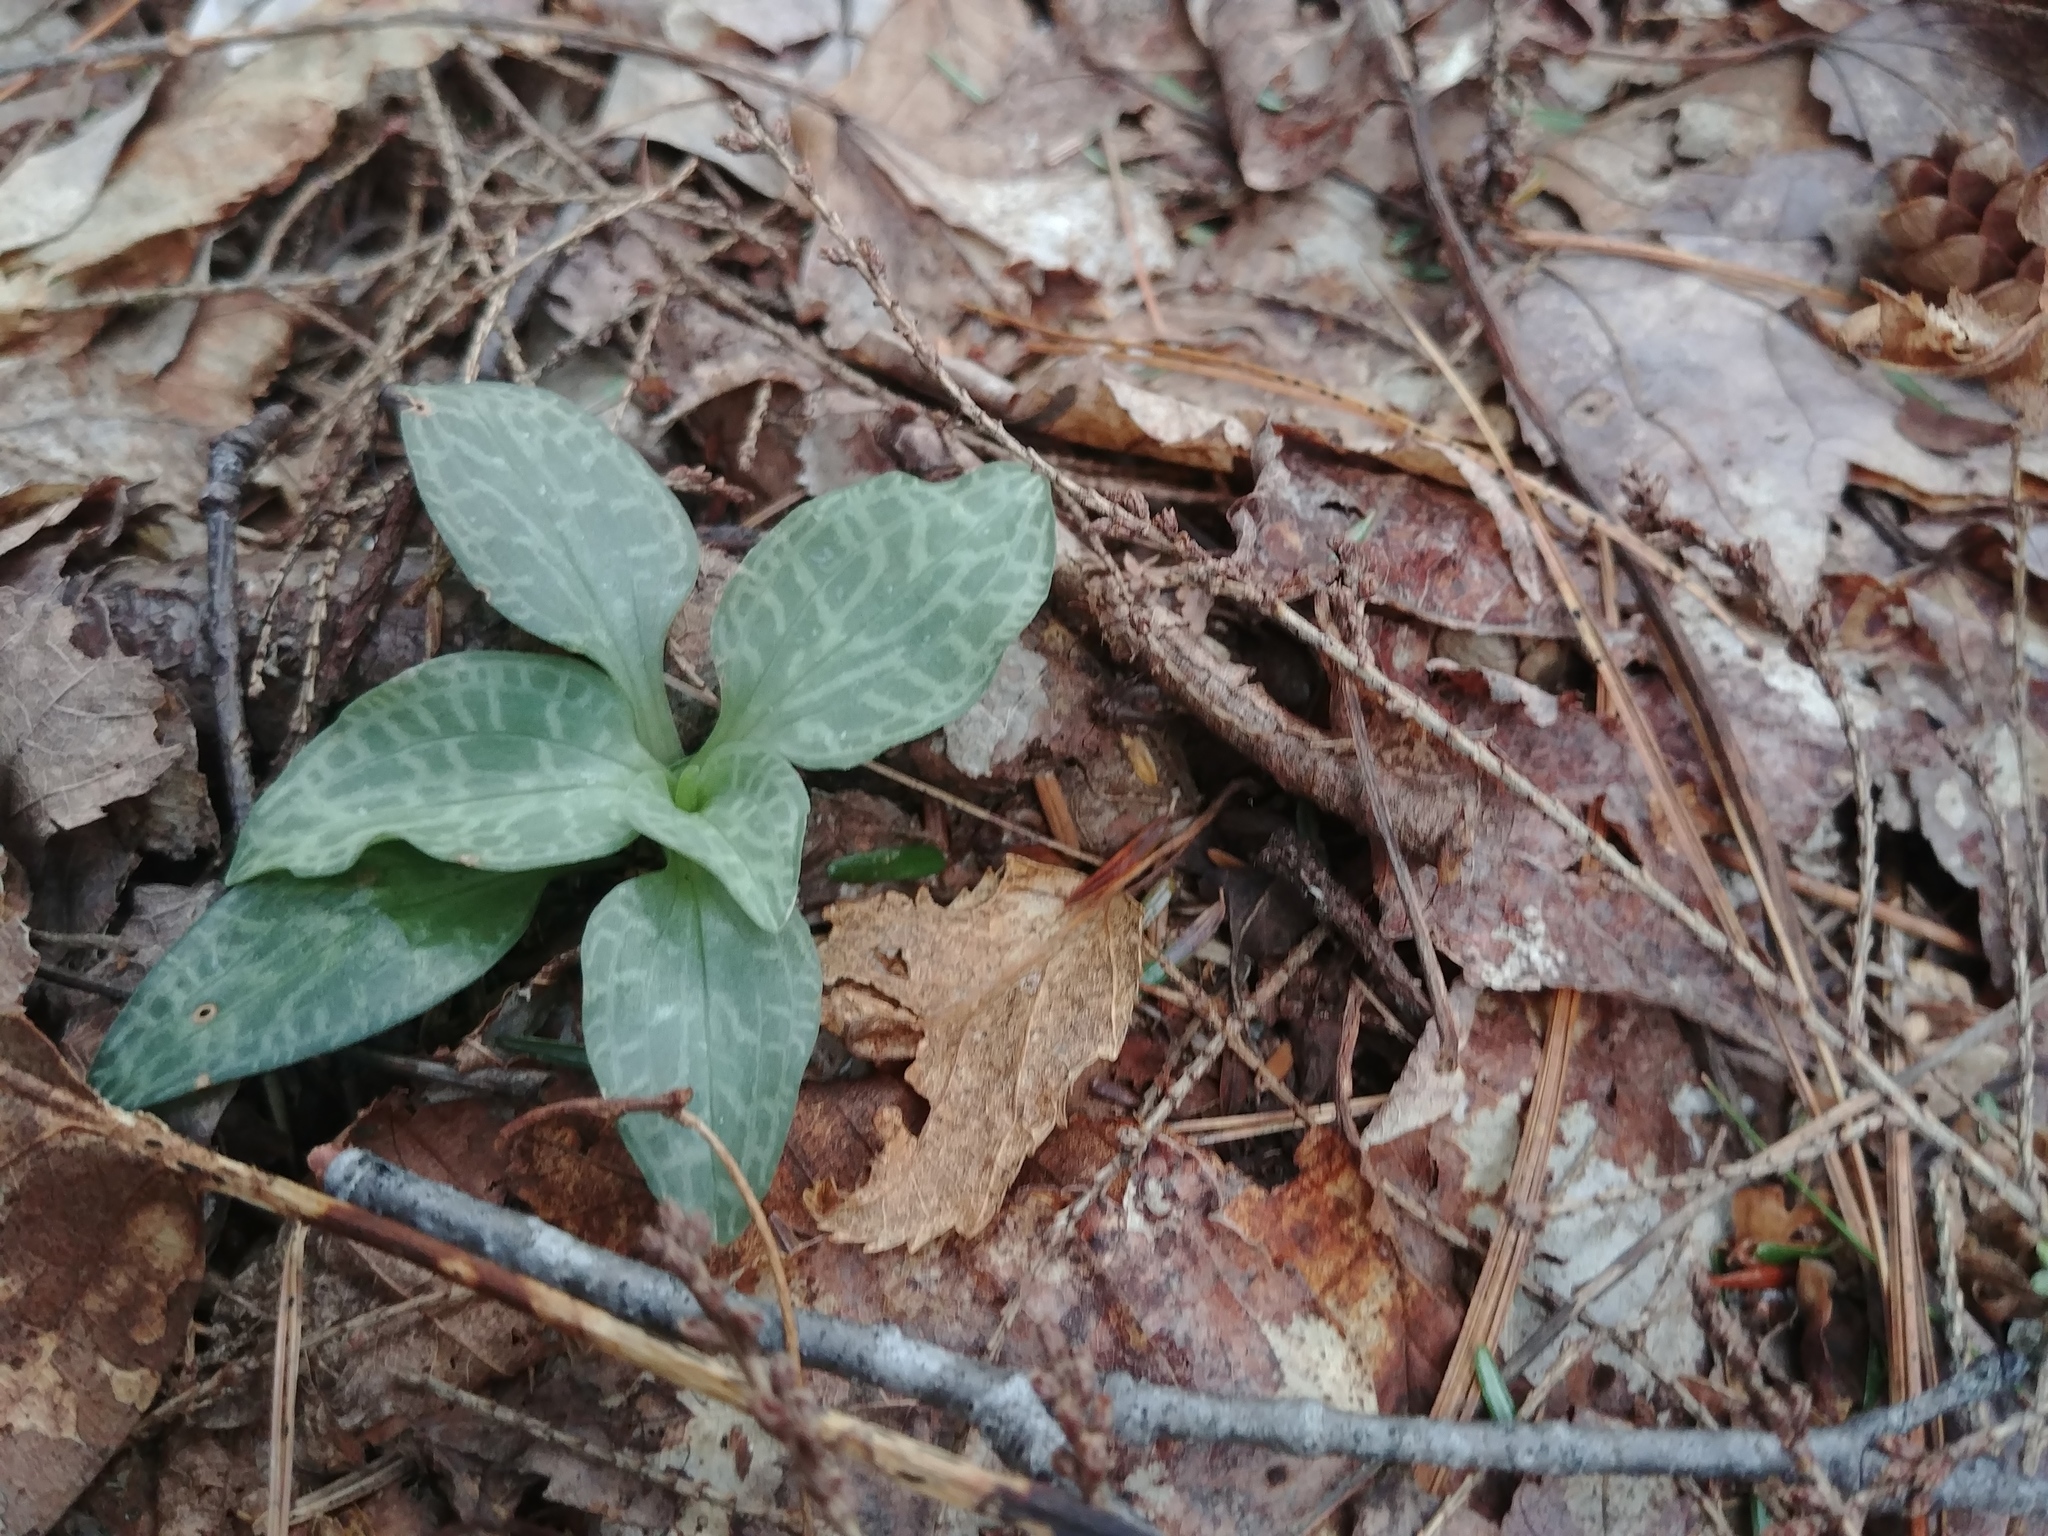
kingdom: Plantae
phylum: Tracheophyta
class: Liliopsida
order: Asparagales
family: Orchidaceae
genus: Goodyera
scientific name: Goodyera tesselata
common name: Checkered rattlesnake-plantain
